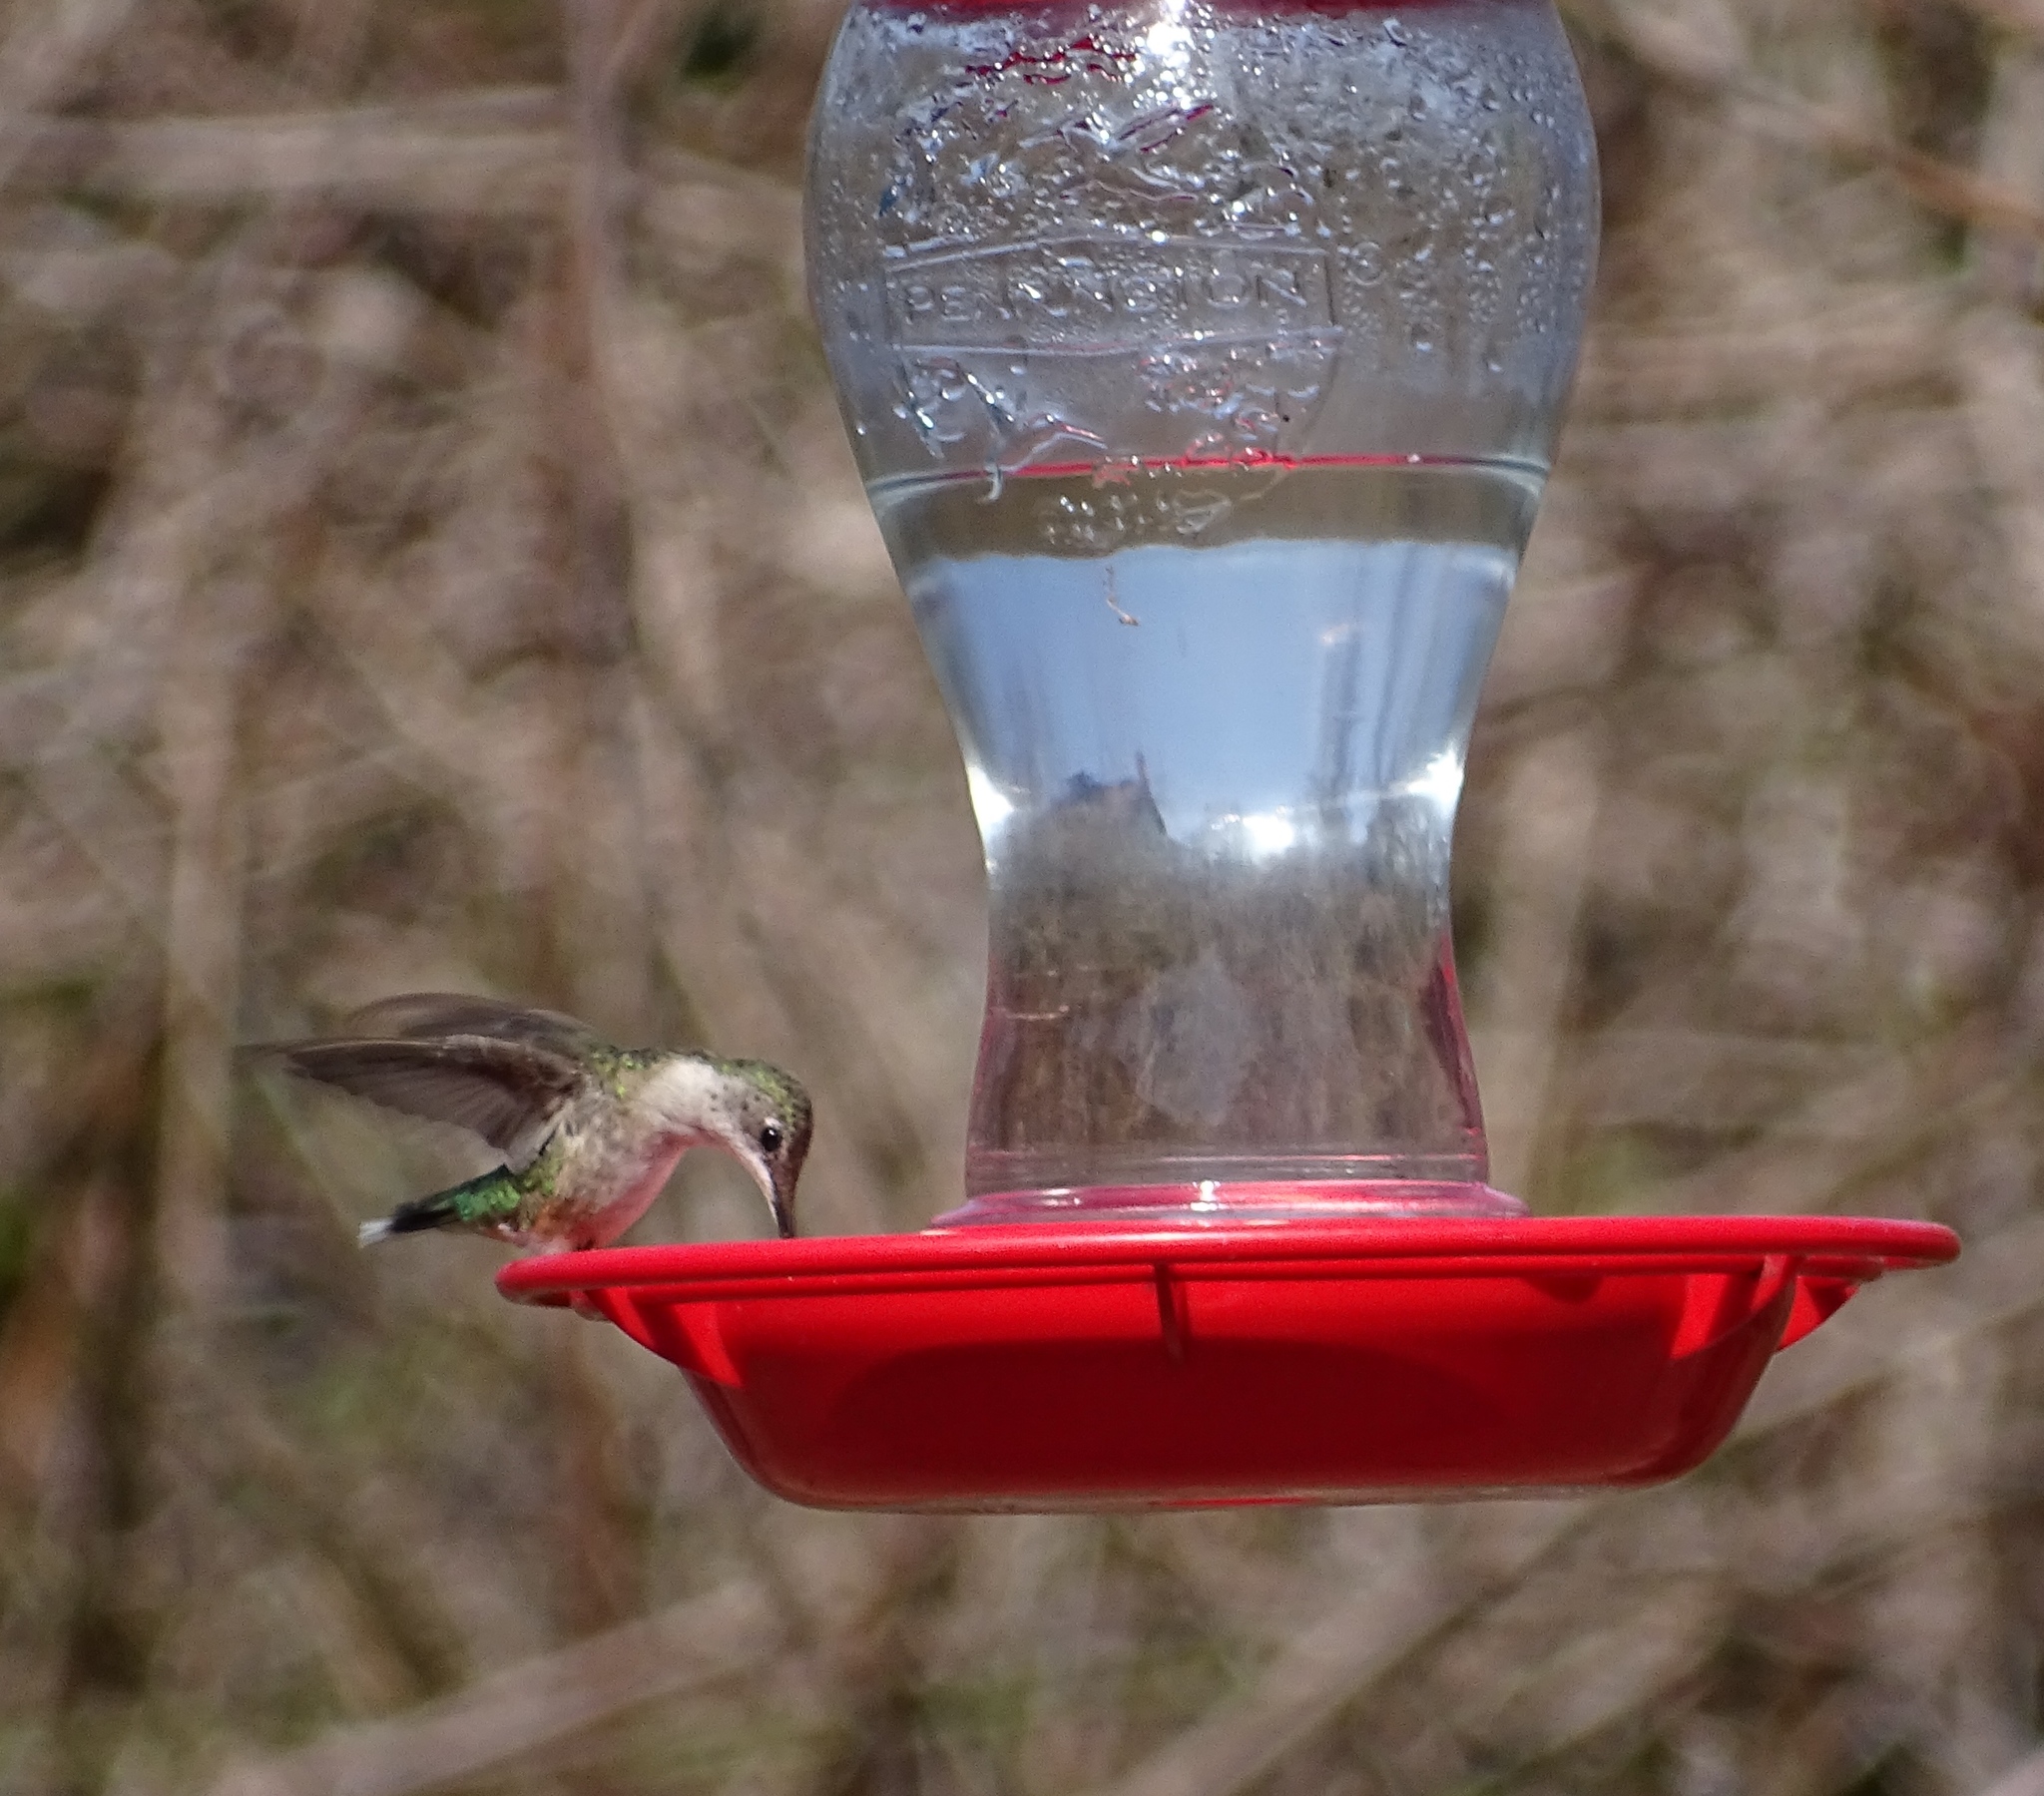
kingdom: Animalia
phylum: Chordata
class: Aves
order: Apodiformes
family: Trochilidae
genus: Archilochus
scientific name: Archilochus colubris
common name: Ruby-throated hummingbird
